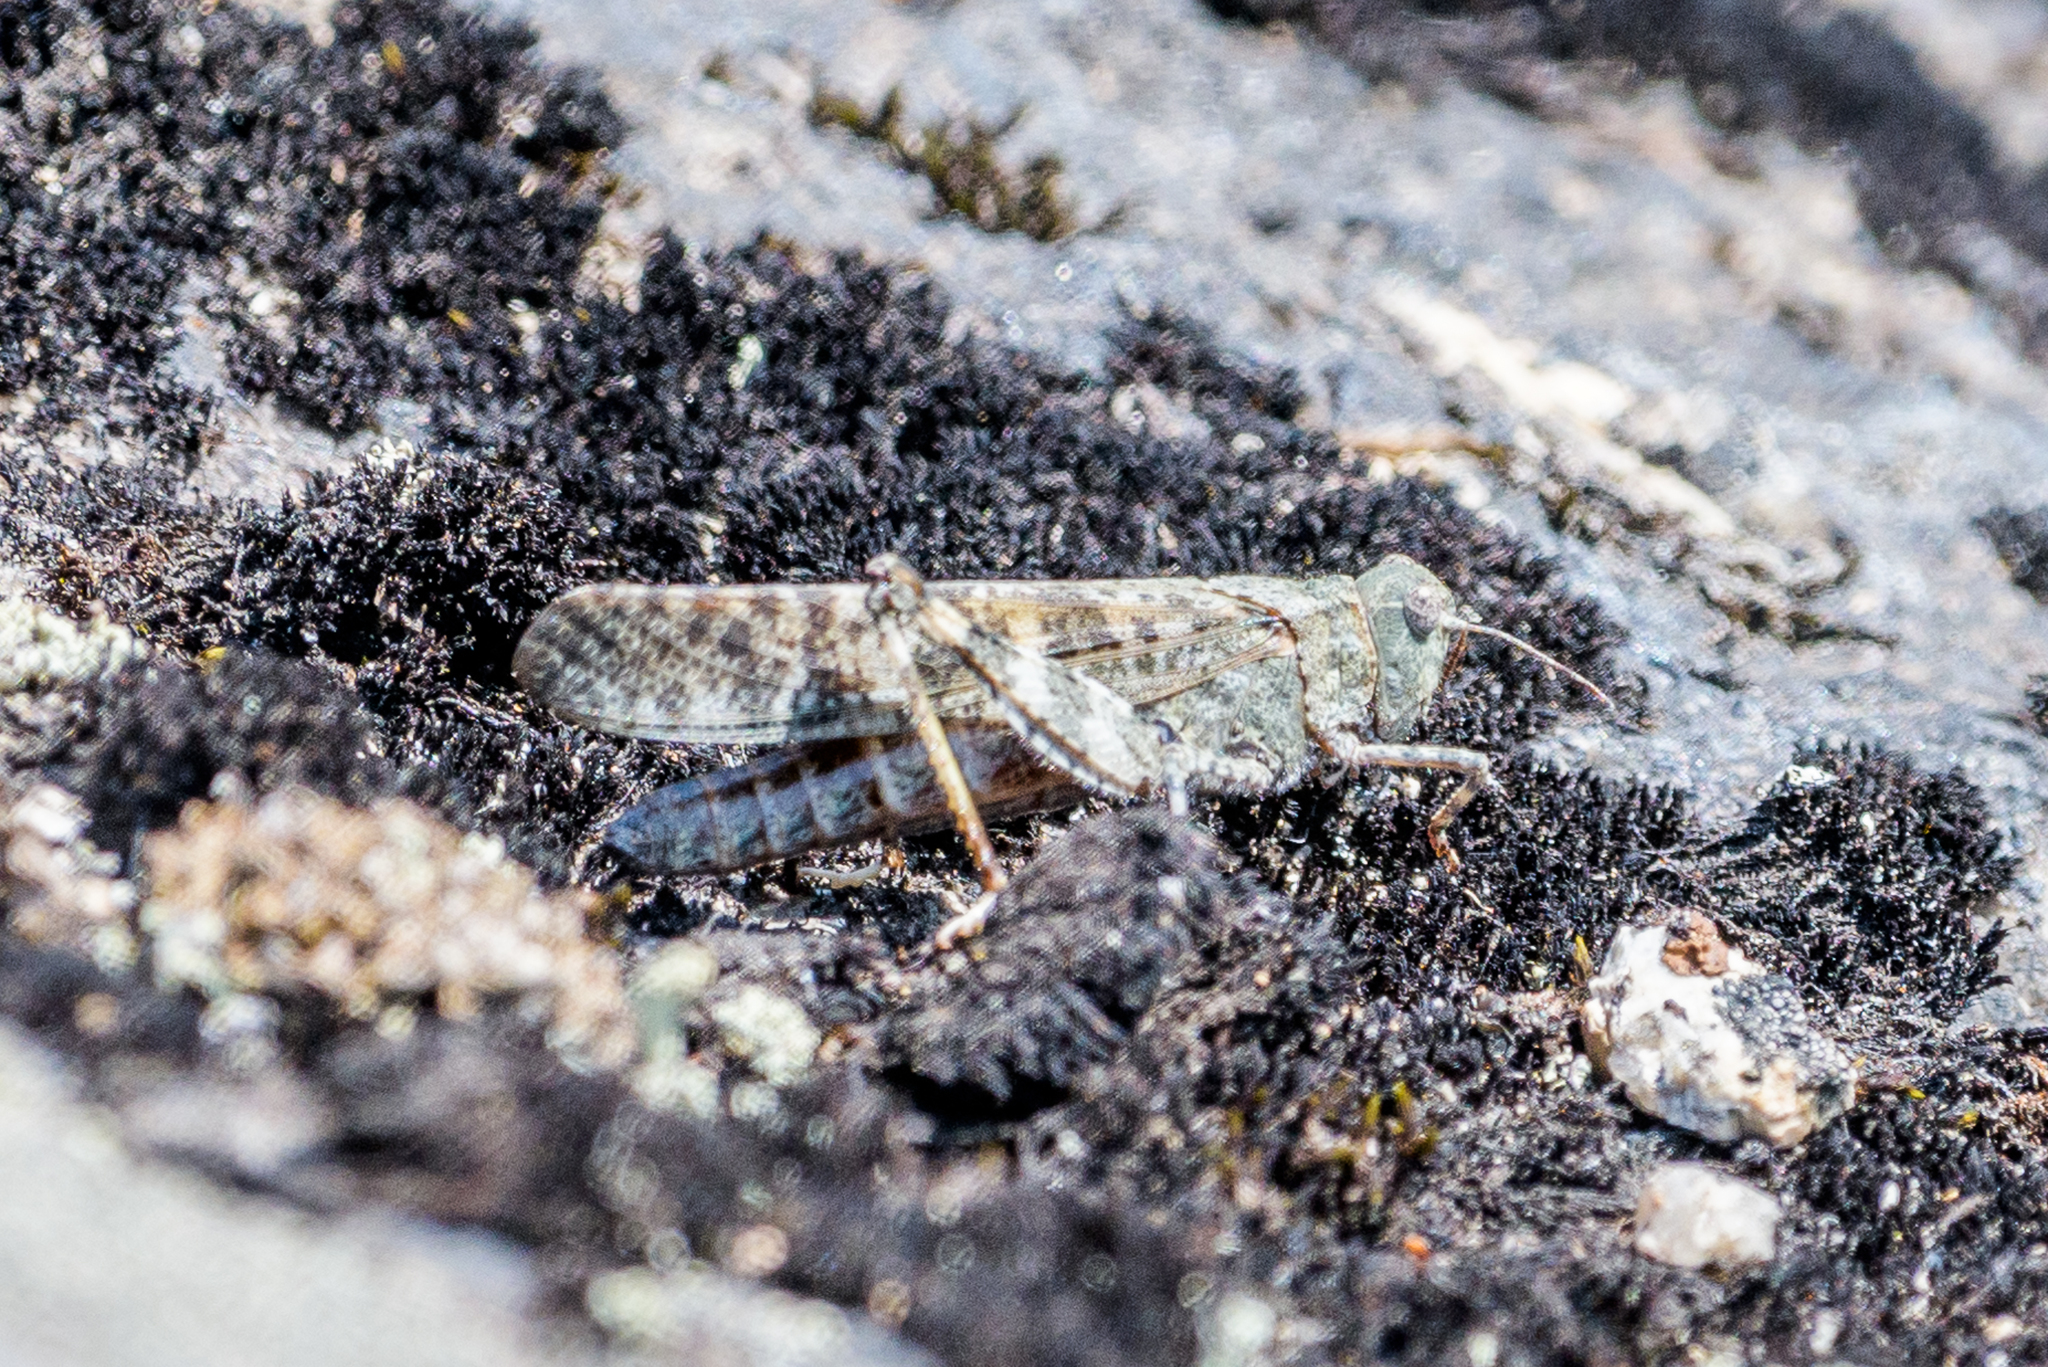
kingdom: Animalia
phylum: Arthropoda
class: Insecta
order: Orthoptera
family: Acrididae
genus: Dissosteira
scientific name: Dissosteira carolina
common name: Carolina grasshopper
